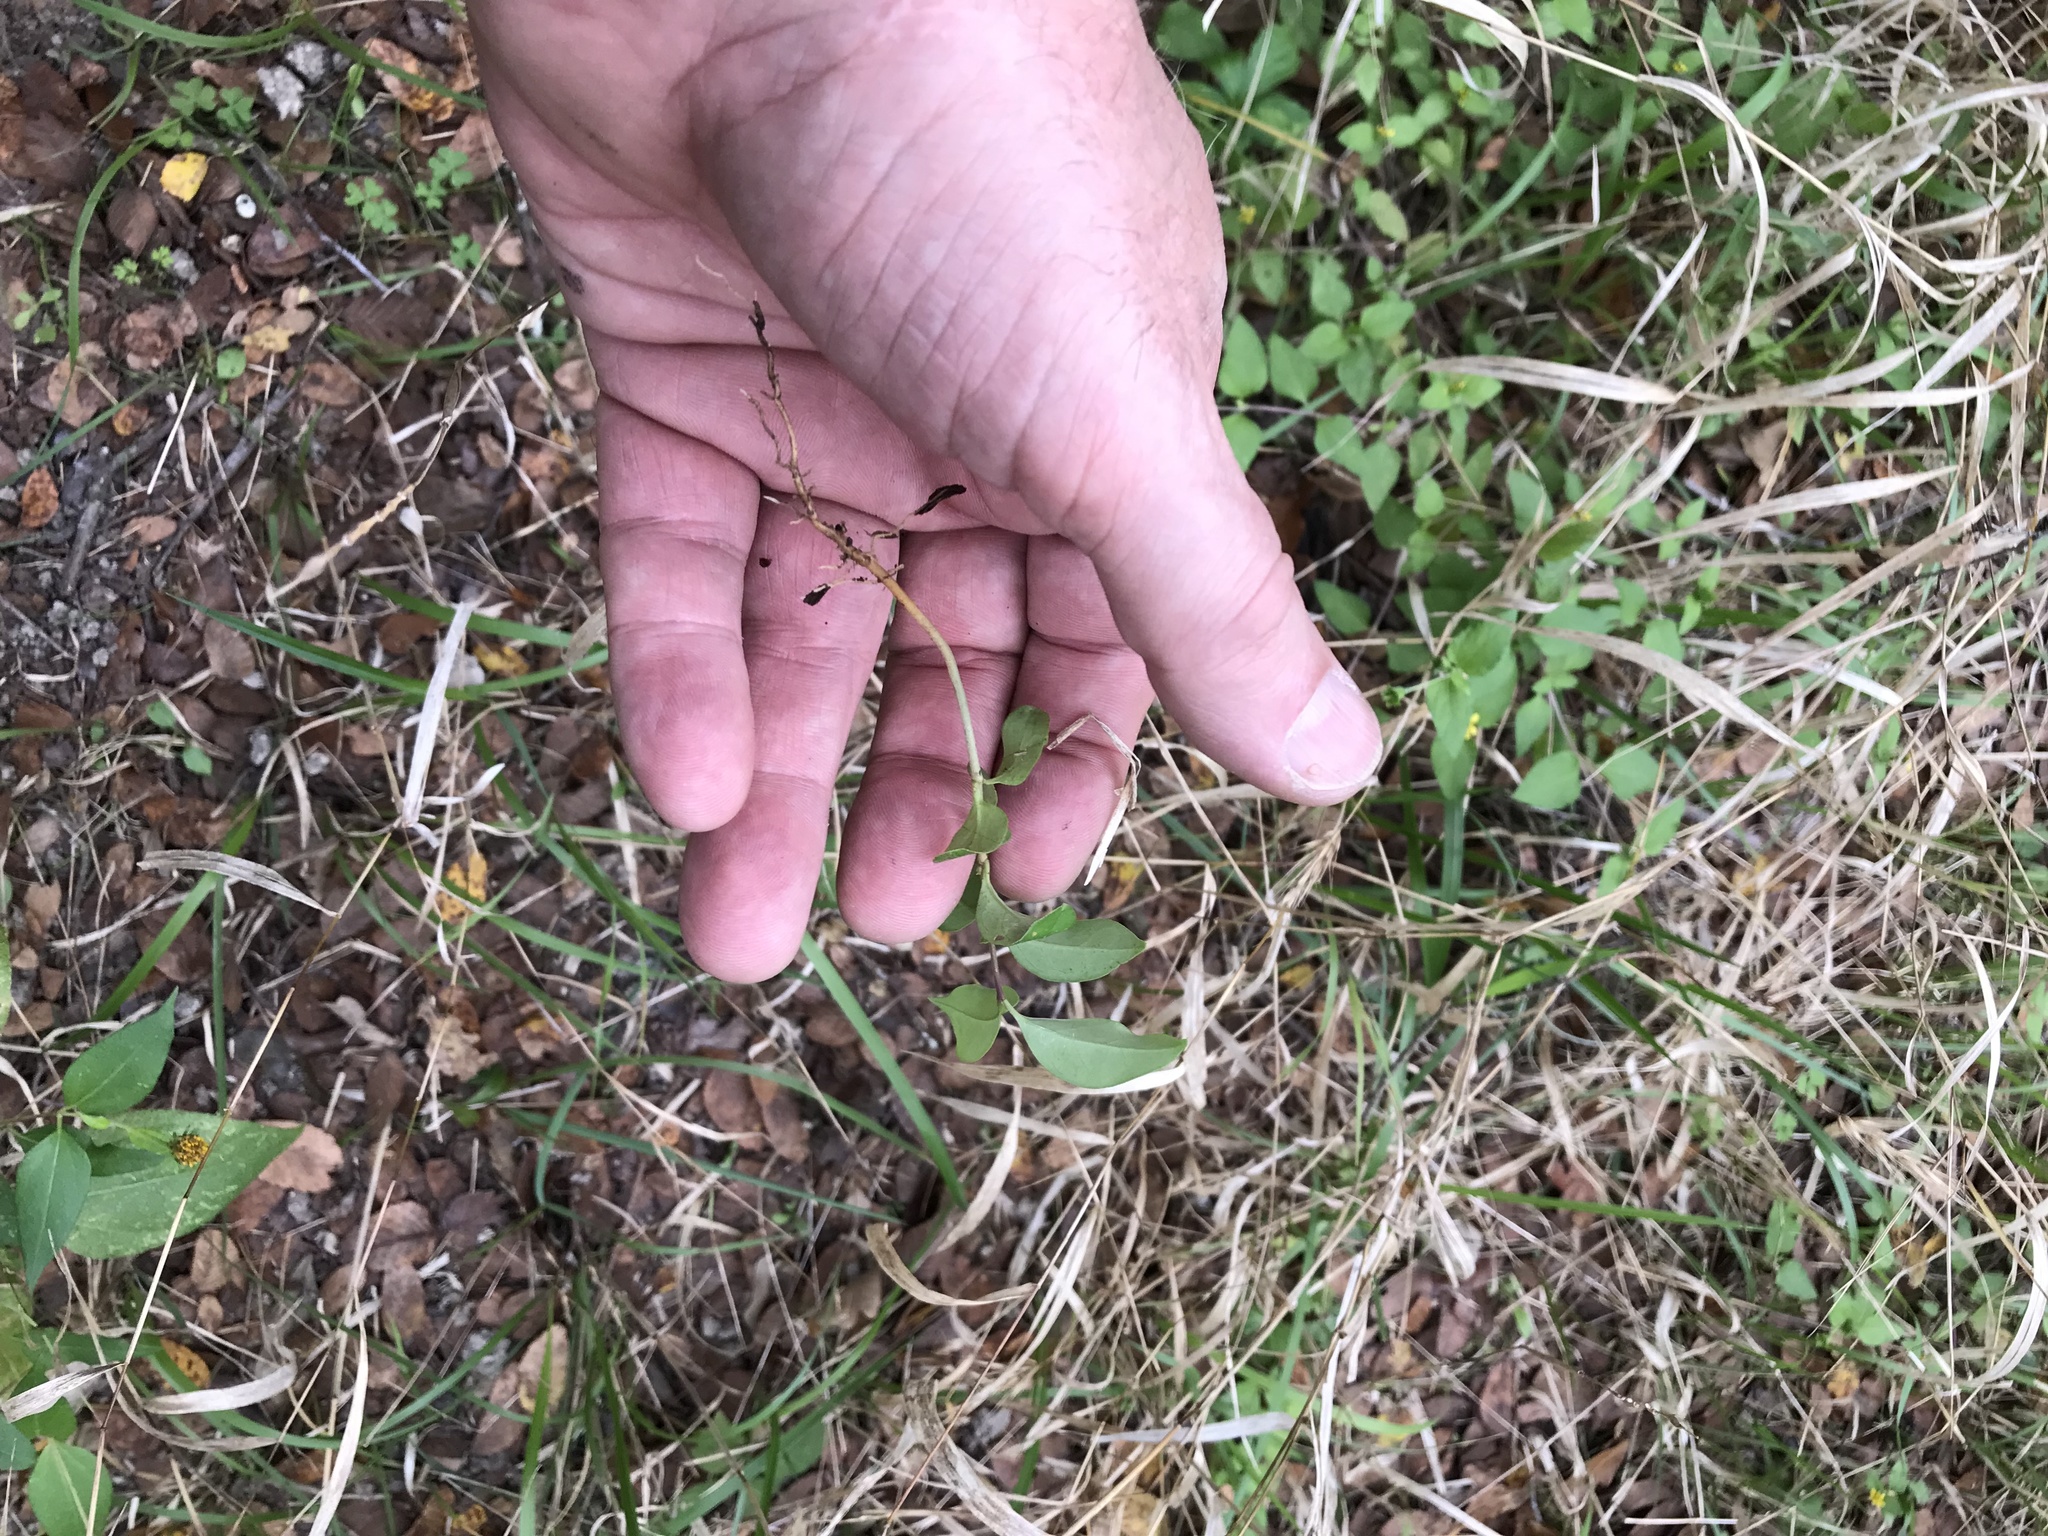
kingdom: Plantae
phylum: Tracheophyta
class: Magnoliopsida
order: Lamiales
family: Oleaceae
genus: Ligustrum
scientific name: Ligustrum lucidum
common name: Glossy privet
